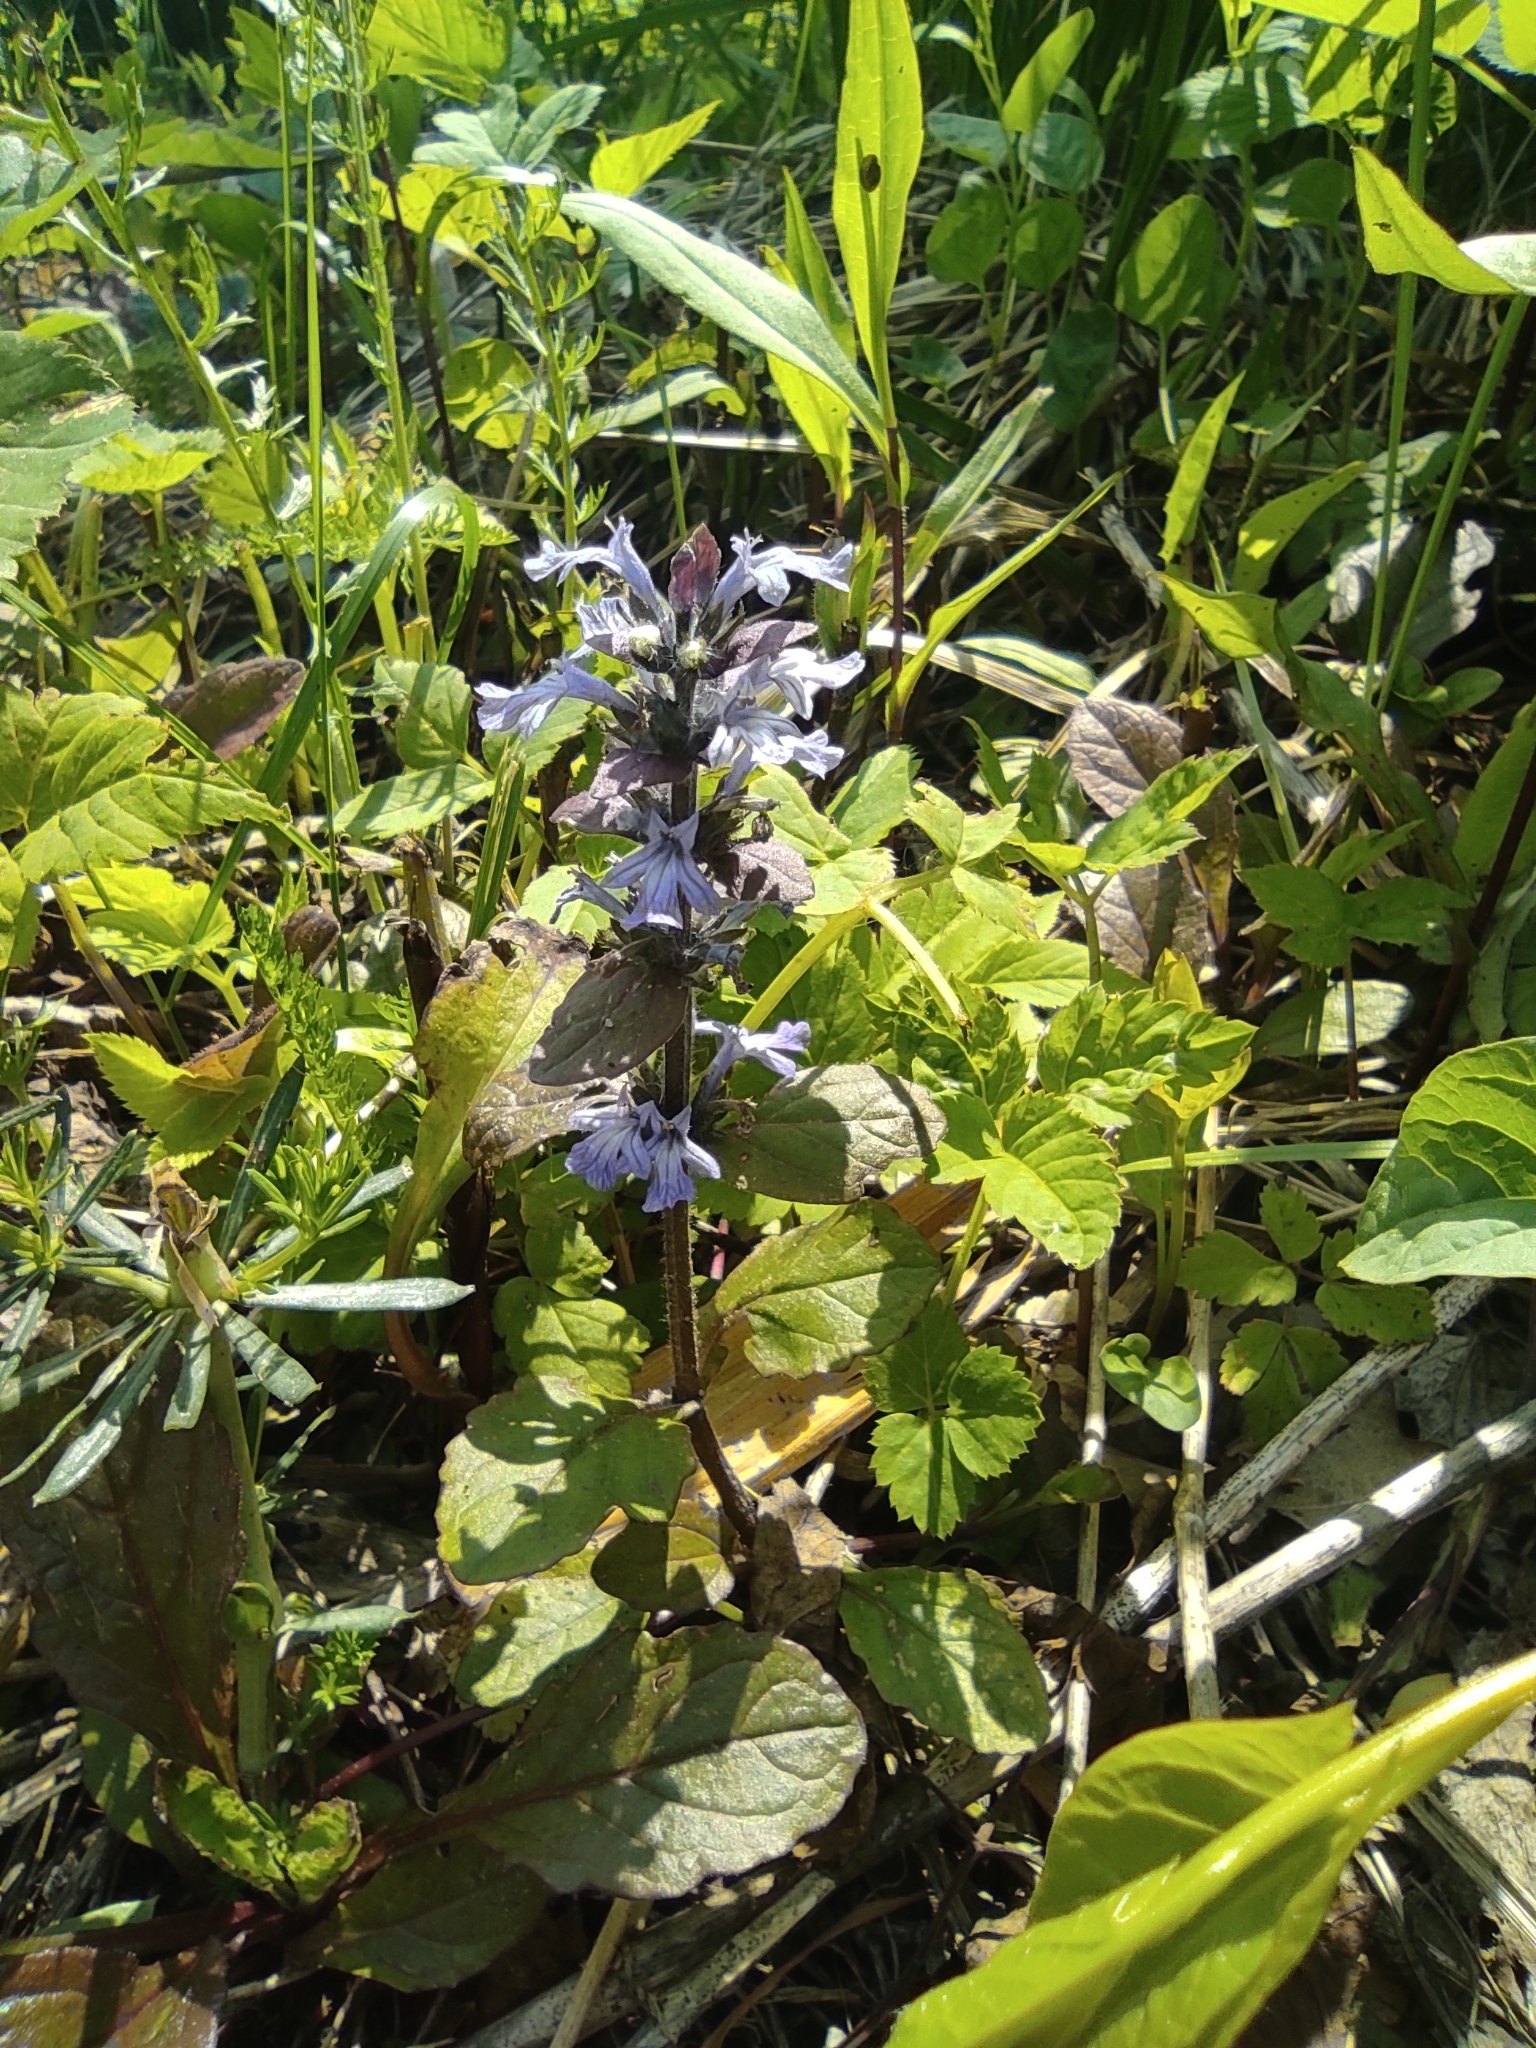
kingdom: Plantae
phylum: Tracheophyta
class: Magnoliopsida
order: Lamiales
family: Lamiaceae
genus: Ajuga
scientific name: Ajuga reptans
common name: Bugle
